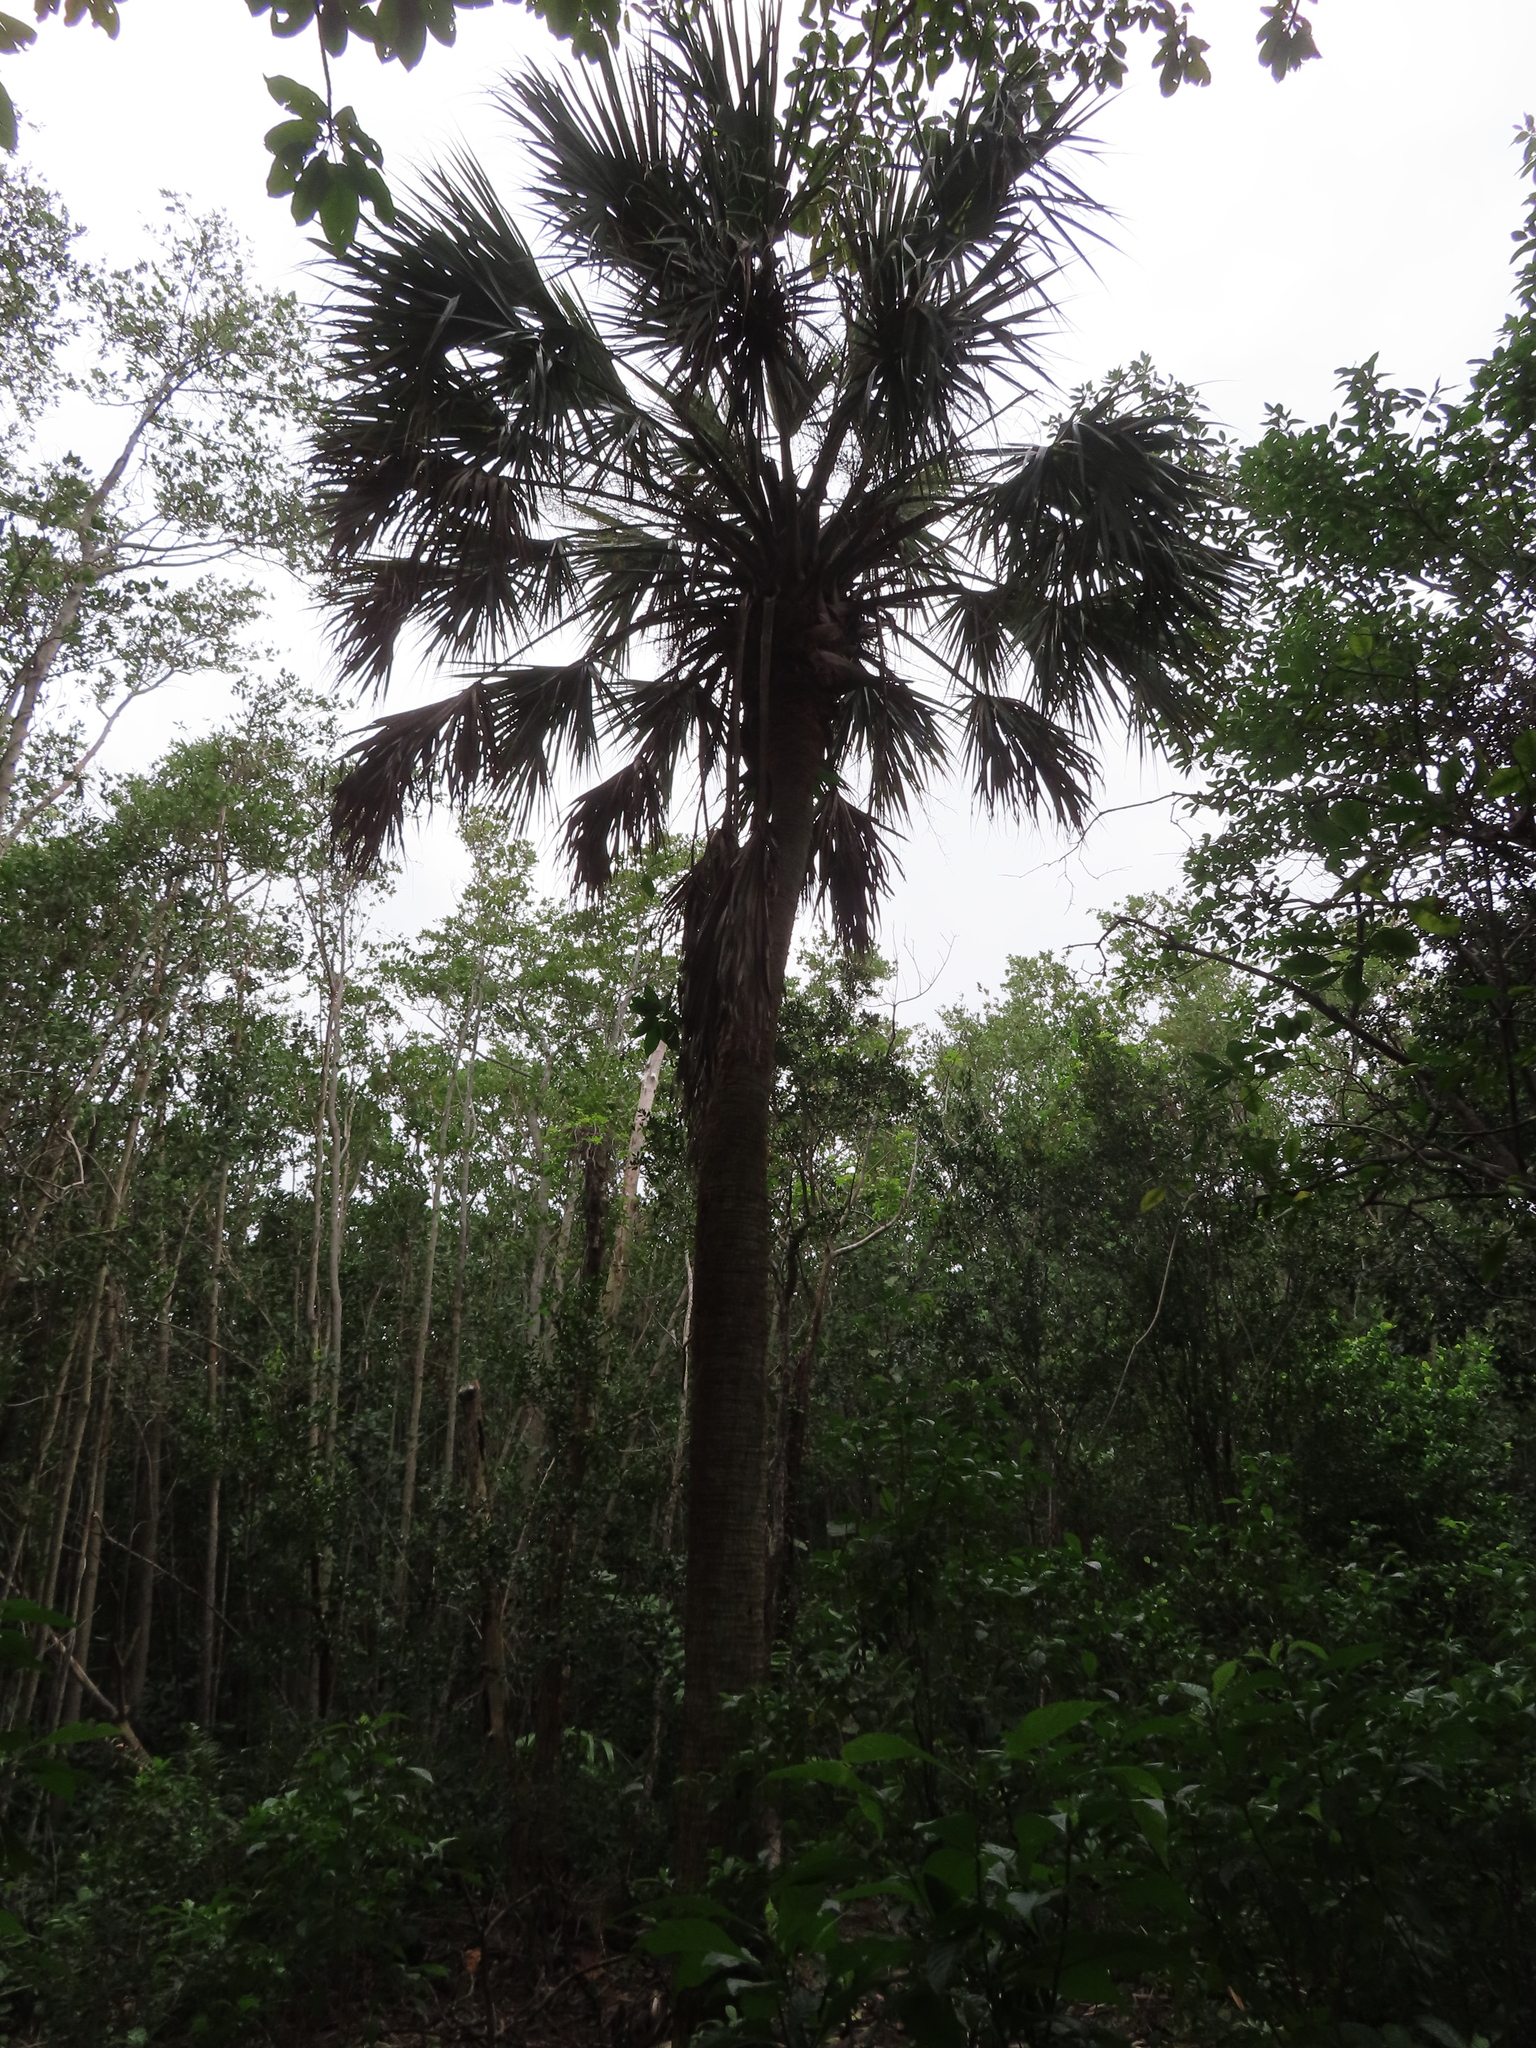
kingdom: Plantae
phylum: Tracheophyta
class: Liliopsida
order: Arecales
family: Arecaceae
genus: Sabal
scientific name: Sabal palmetto
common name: Blue palmetto
